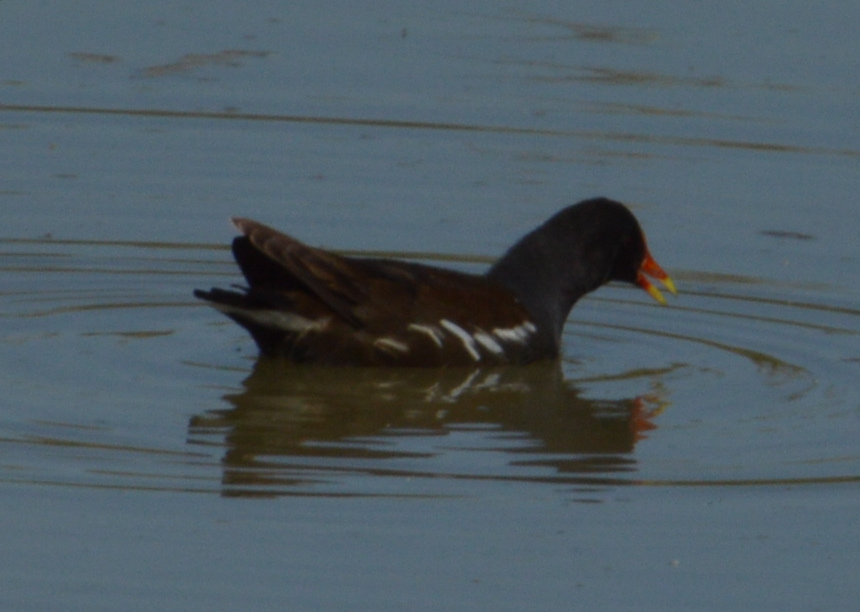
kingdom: Animalia
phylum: Chordata
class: Aves
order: Gruiformes
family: Rallidae
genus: Gallinula
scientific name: Gallinula chloropus
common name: Common moorhen
